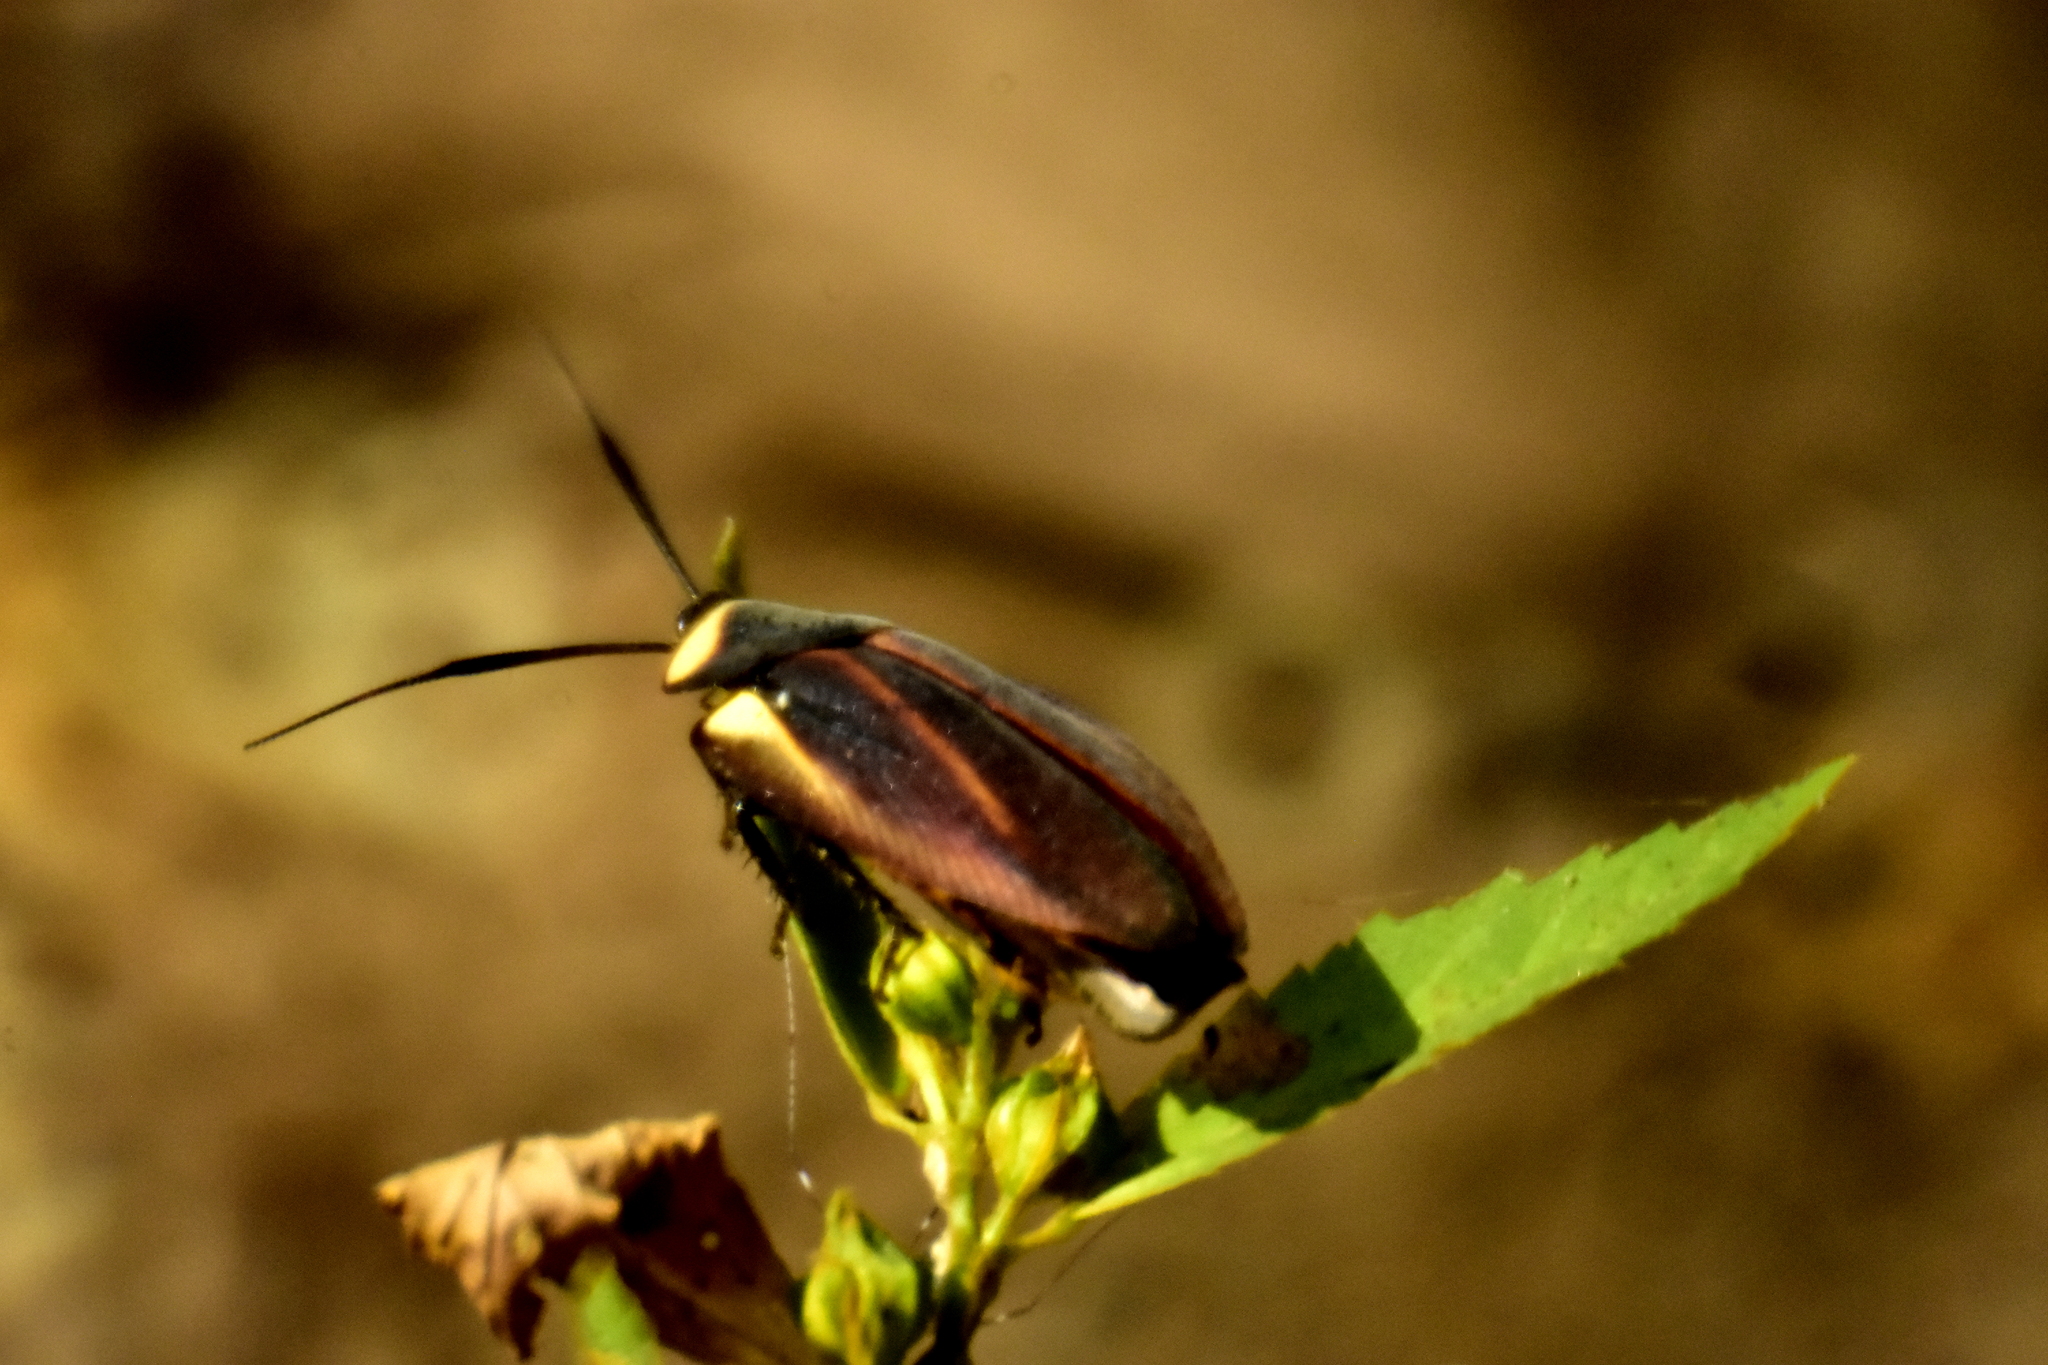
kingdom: Animalia
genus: Rochaina
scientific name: Rochaina
